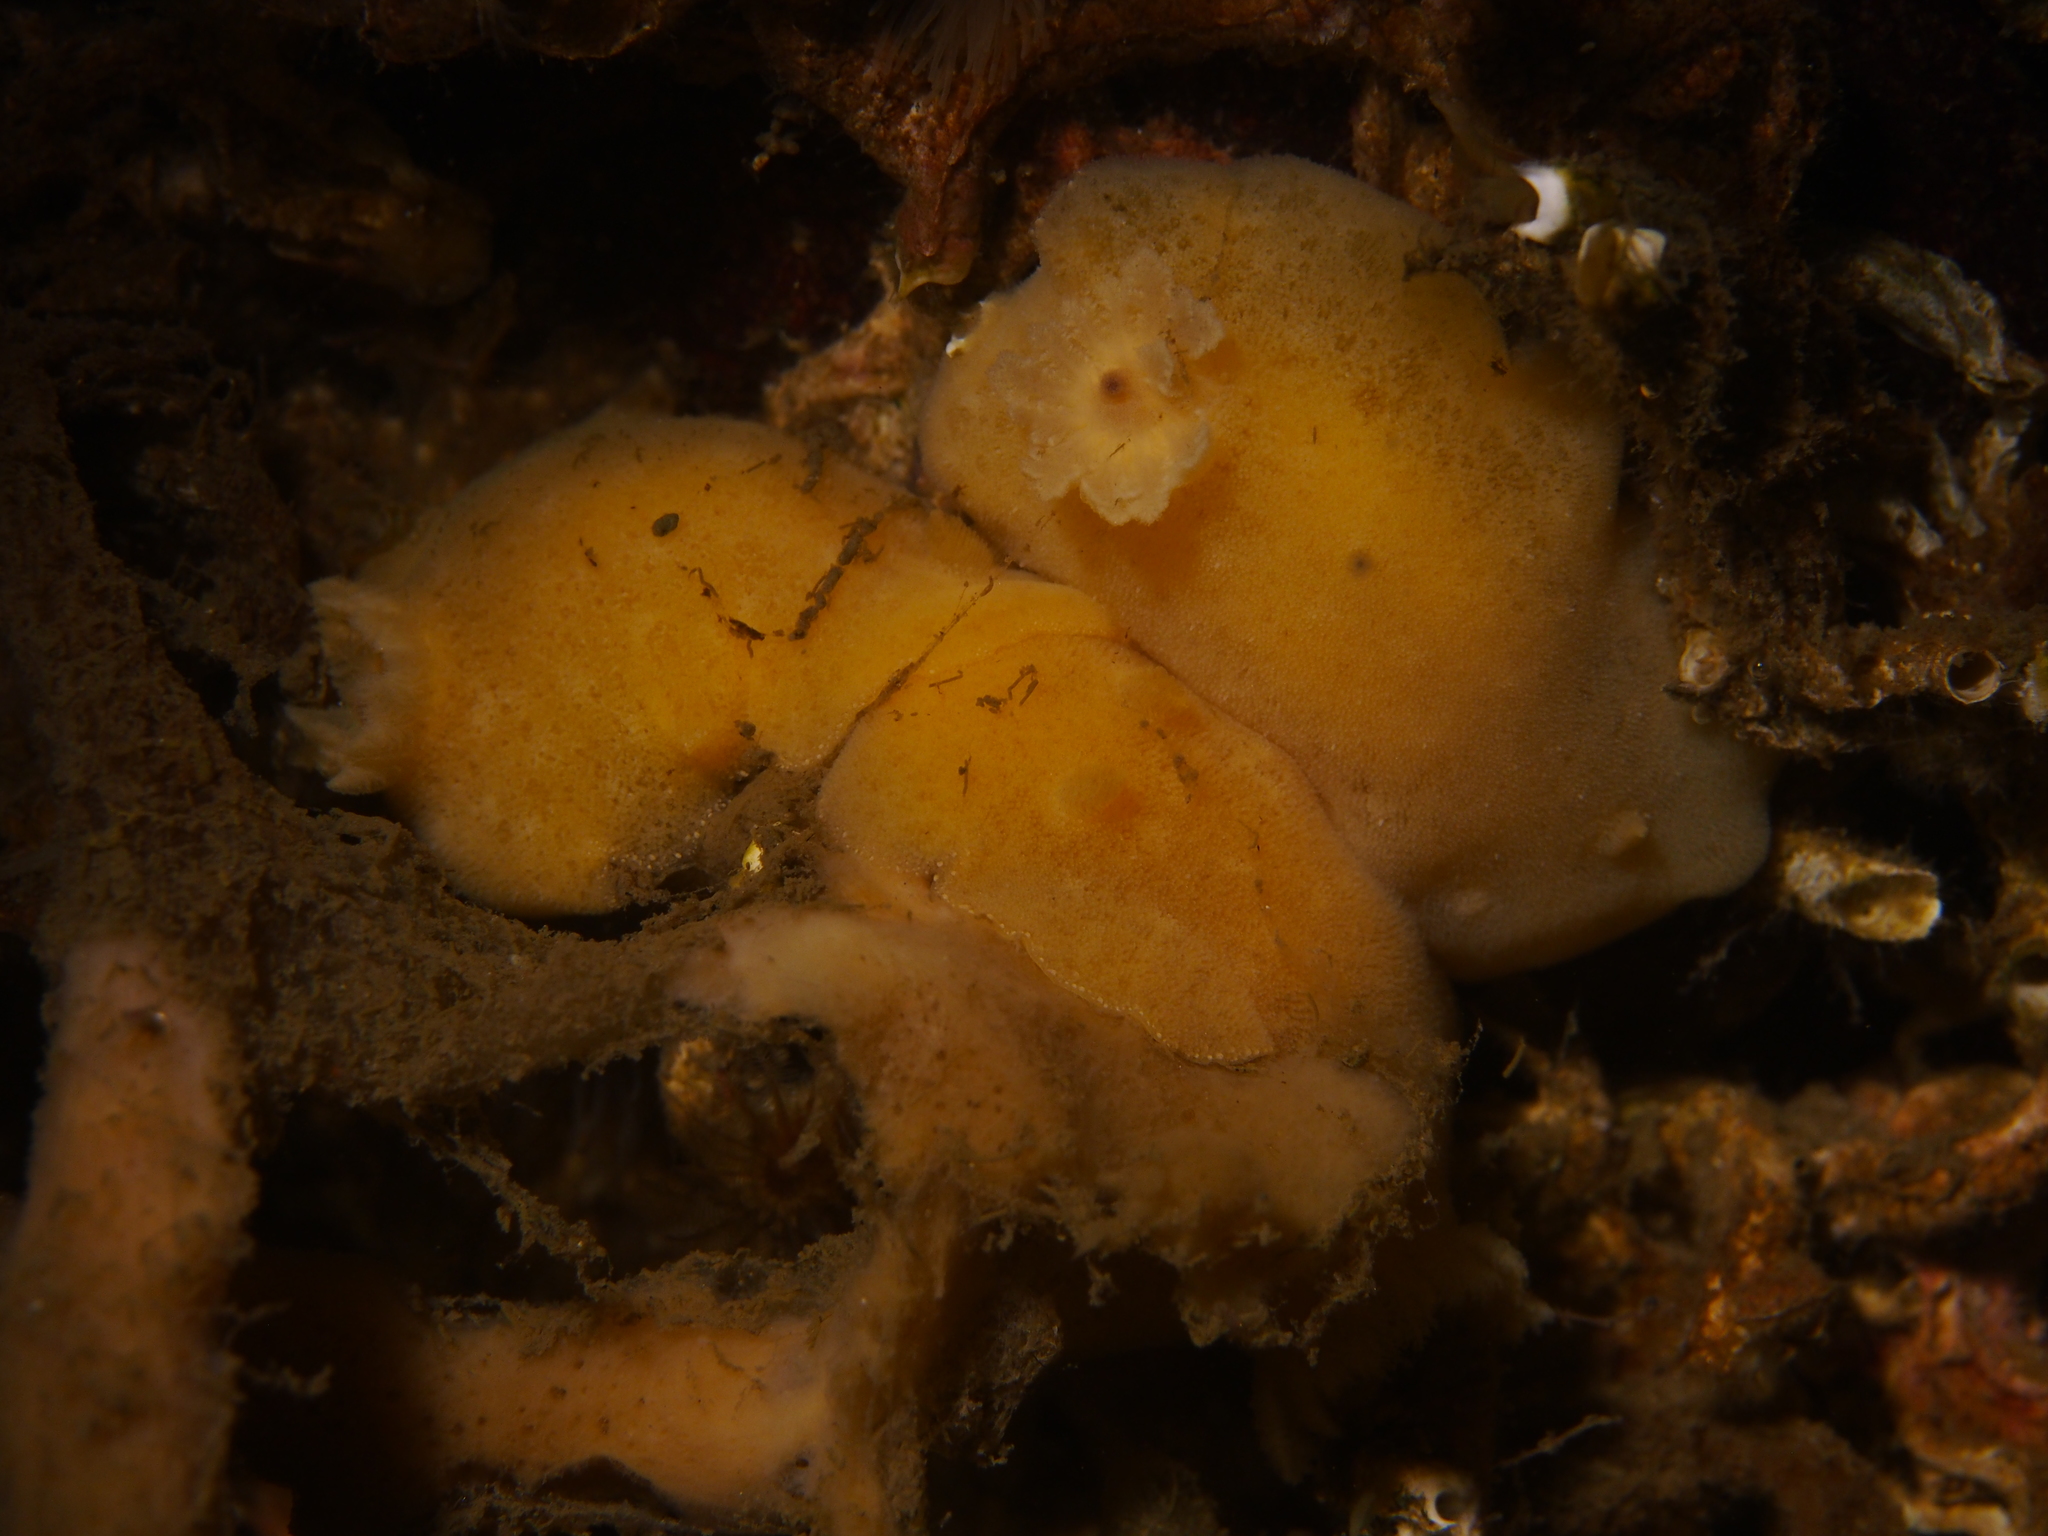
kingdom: Animalia
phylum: Mollusca
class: Gastropoda
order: Nudibranchia
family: Discodorididae
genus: Jorunna
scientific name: Jorunna tomentosa
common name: Grey sea slug
